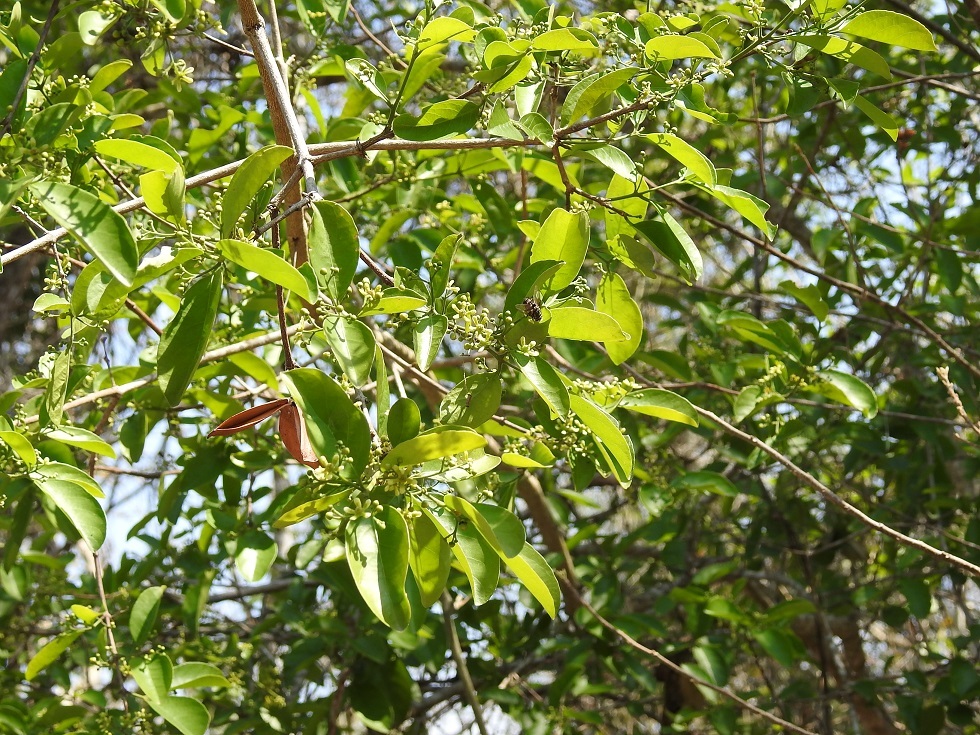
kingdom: Plantae
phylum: Tracheophyta
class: Magnoliopsida
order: Celastrales
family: Celastraceae
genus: Semialarium
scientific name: Semialarium mexicanum
